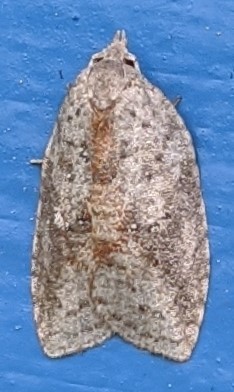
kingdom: Animalia
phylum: Arthropoda
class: Insecta
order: Lepidoptera
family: Tortricidae
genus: Amorbia
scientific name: Amorbia humerosana
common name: White-lined leafroller moth
